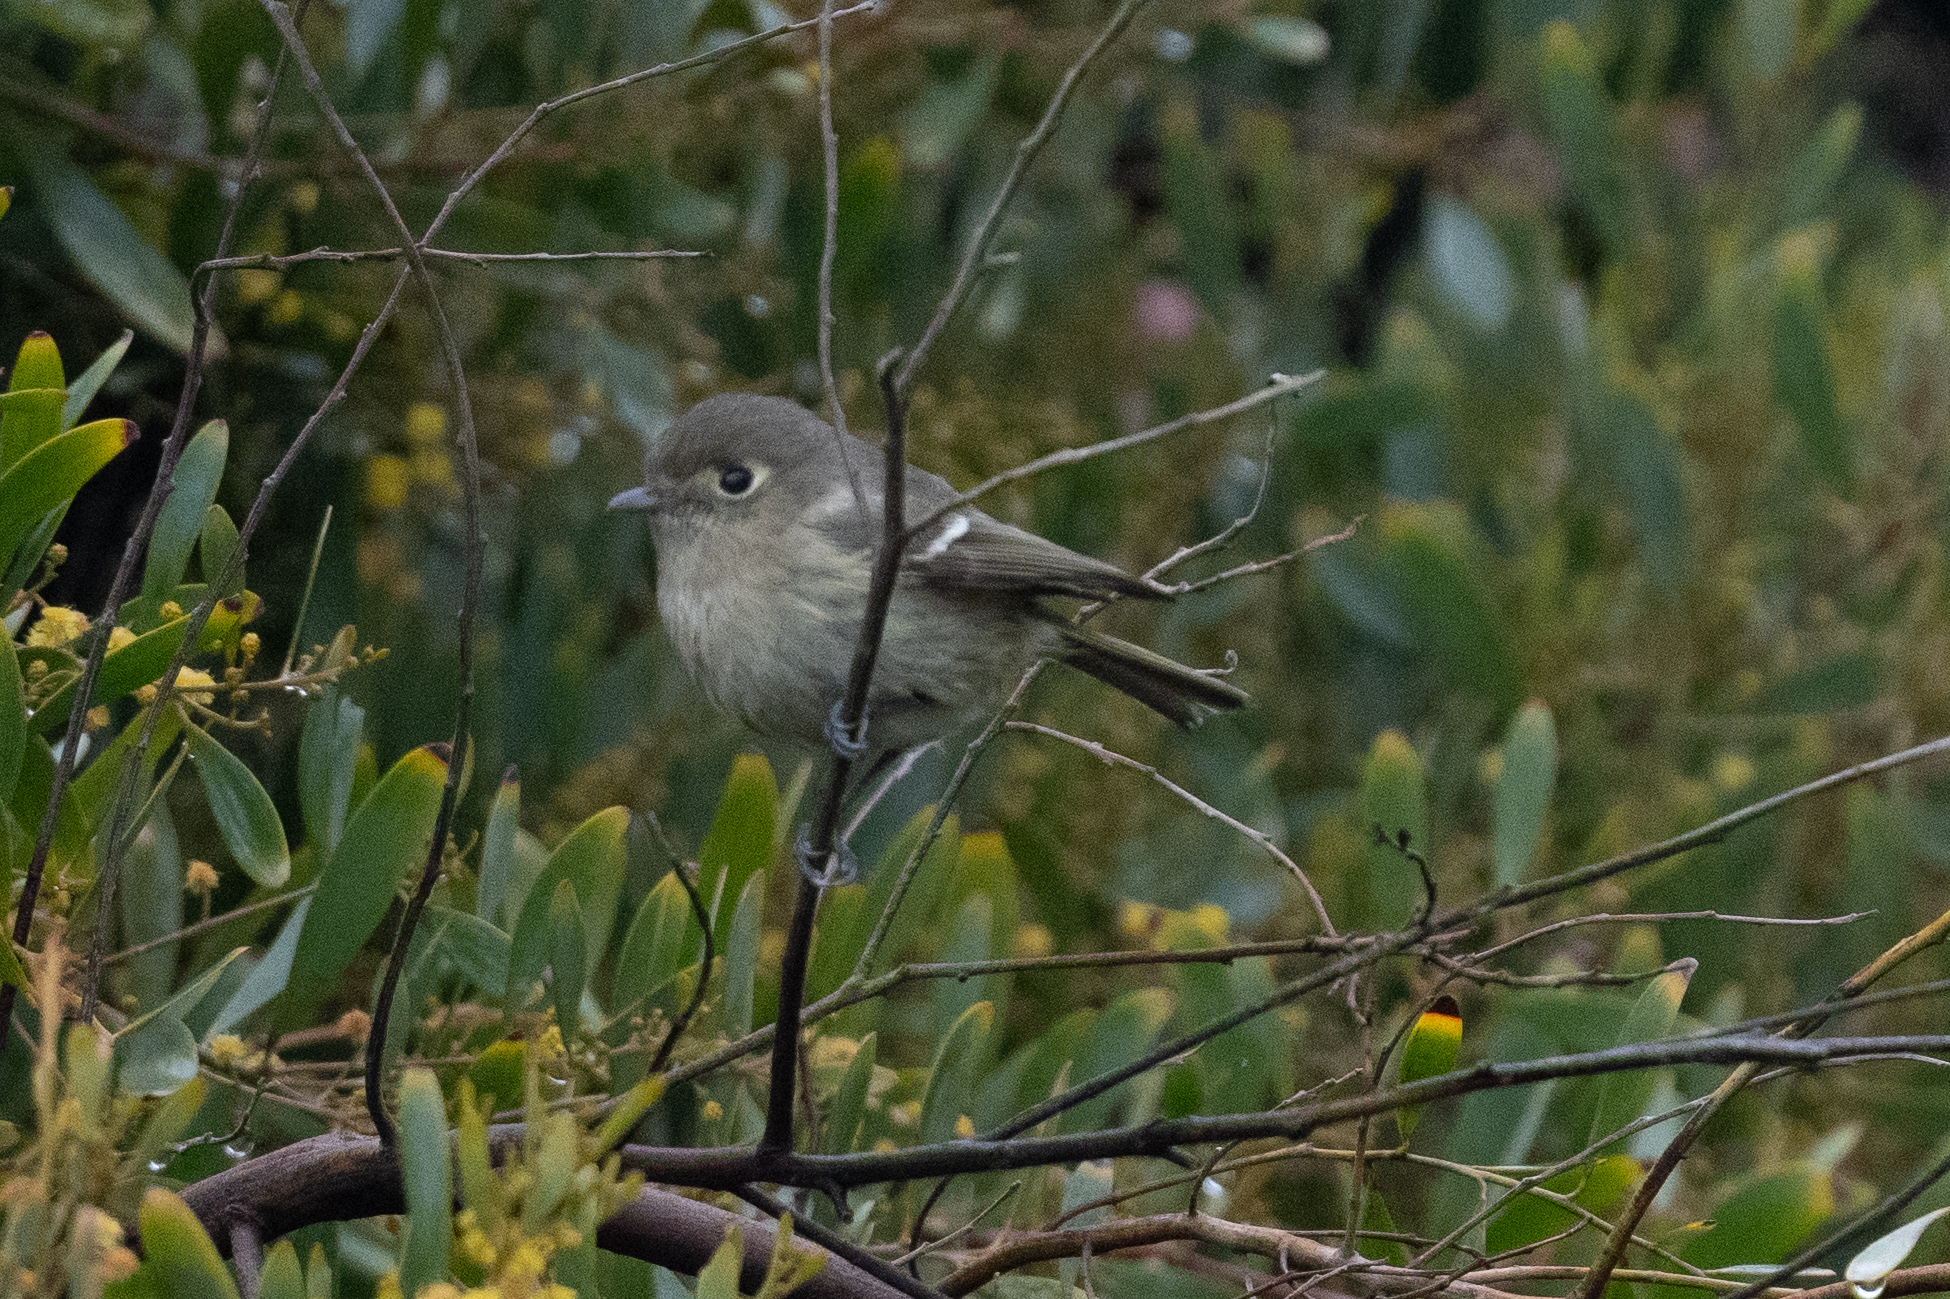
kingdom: Animalia
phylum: Chordata
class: Aves
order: Passeriformes
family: Vireonidae
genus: Vireo
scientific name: Vireo huttoni
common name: Hutton's vireo
